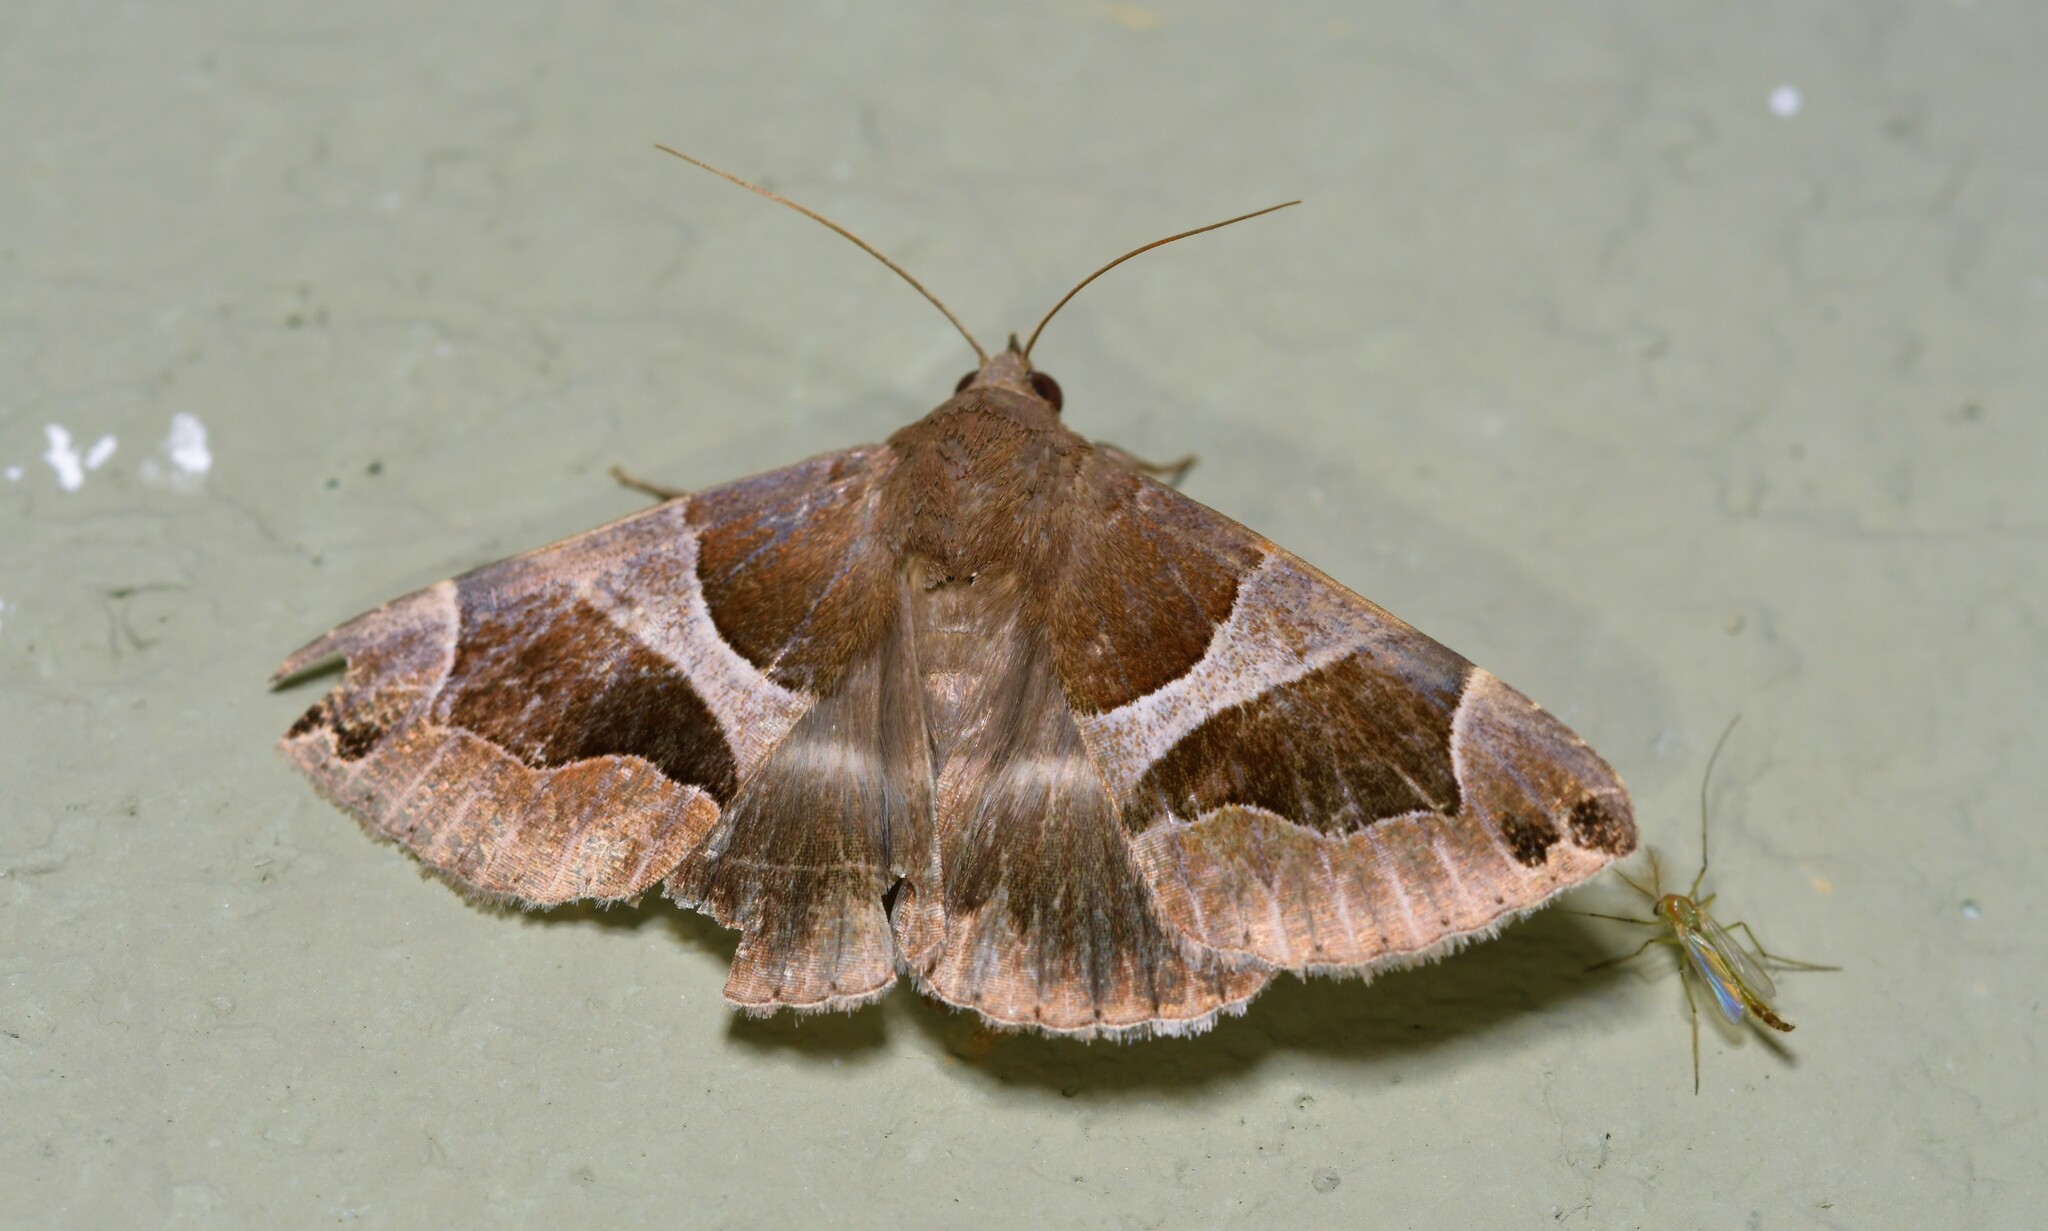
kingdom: Animalia
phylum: Arthropoda
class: Insecta
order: Lepidoptera
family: Erebidae
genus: Dysgonia
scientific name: Dysgonia algira
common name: Passenger
